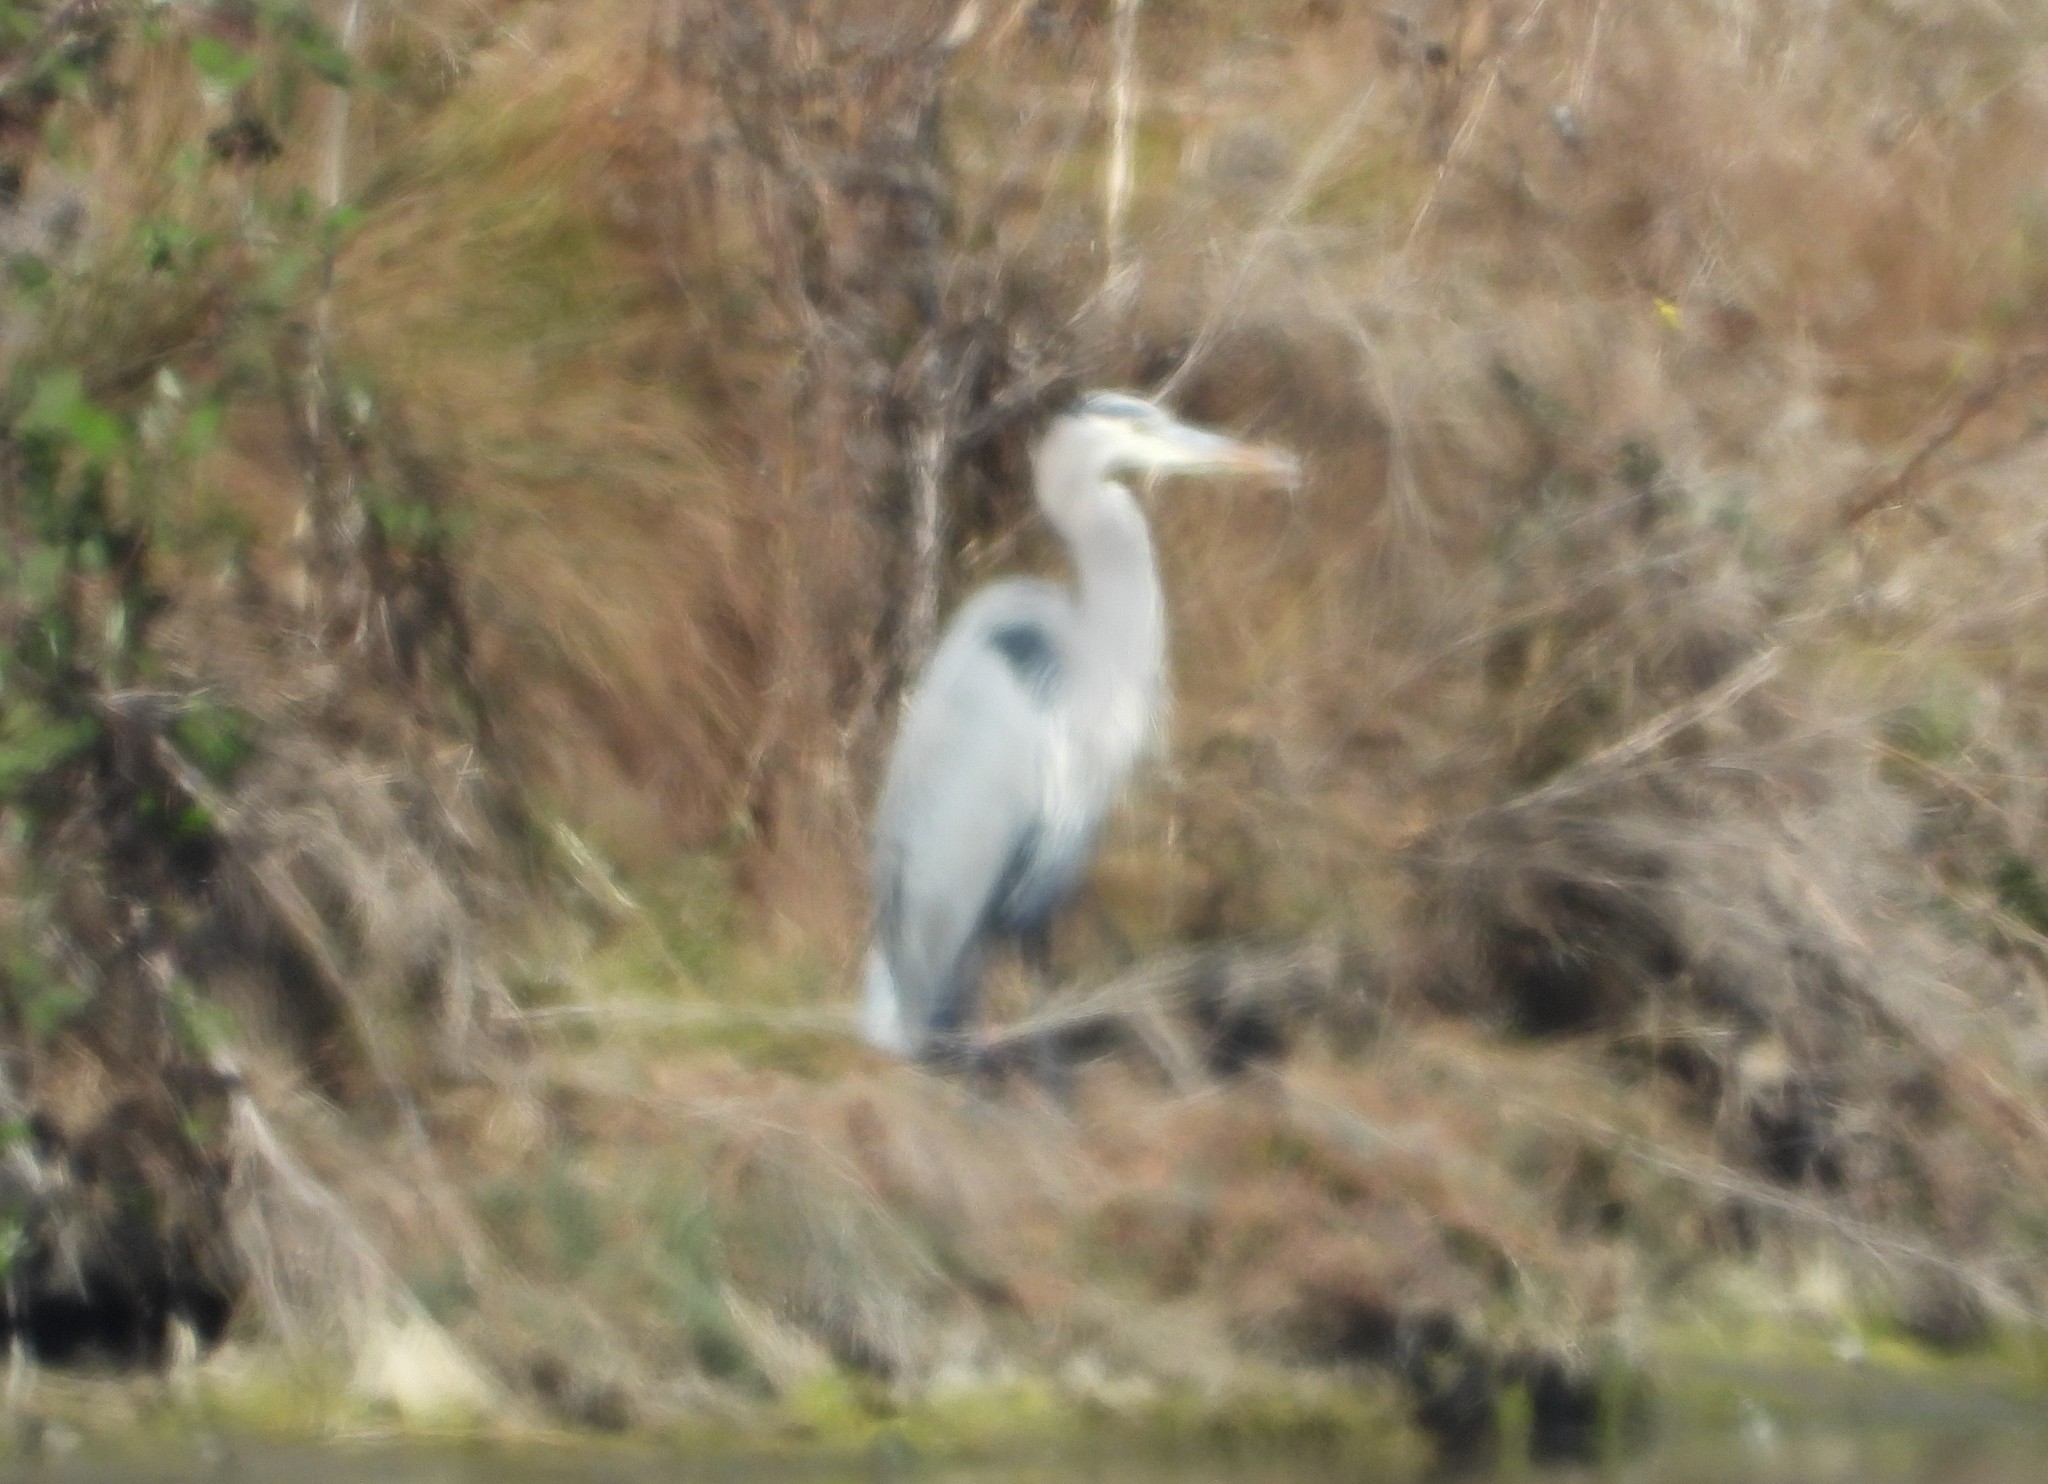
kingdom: Animalia
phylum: Chordata
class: Aves
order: Pelecaniformes
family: Ardeidae
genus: Ardea
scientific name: Ardea herodias
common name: Great blue heron
